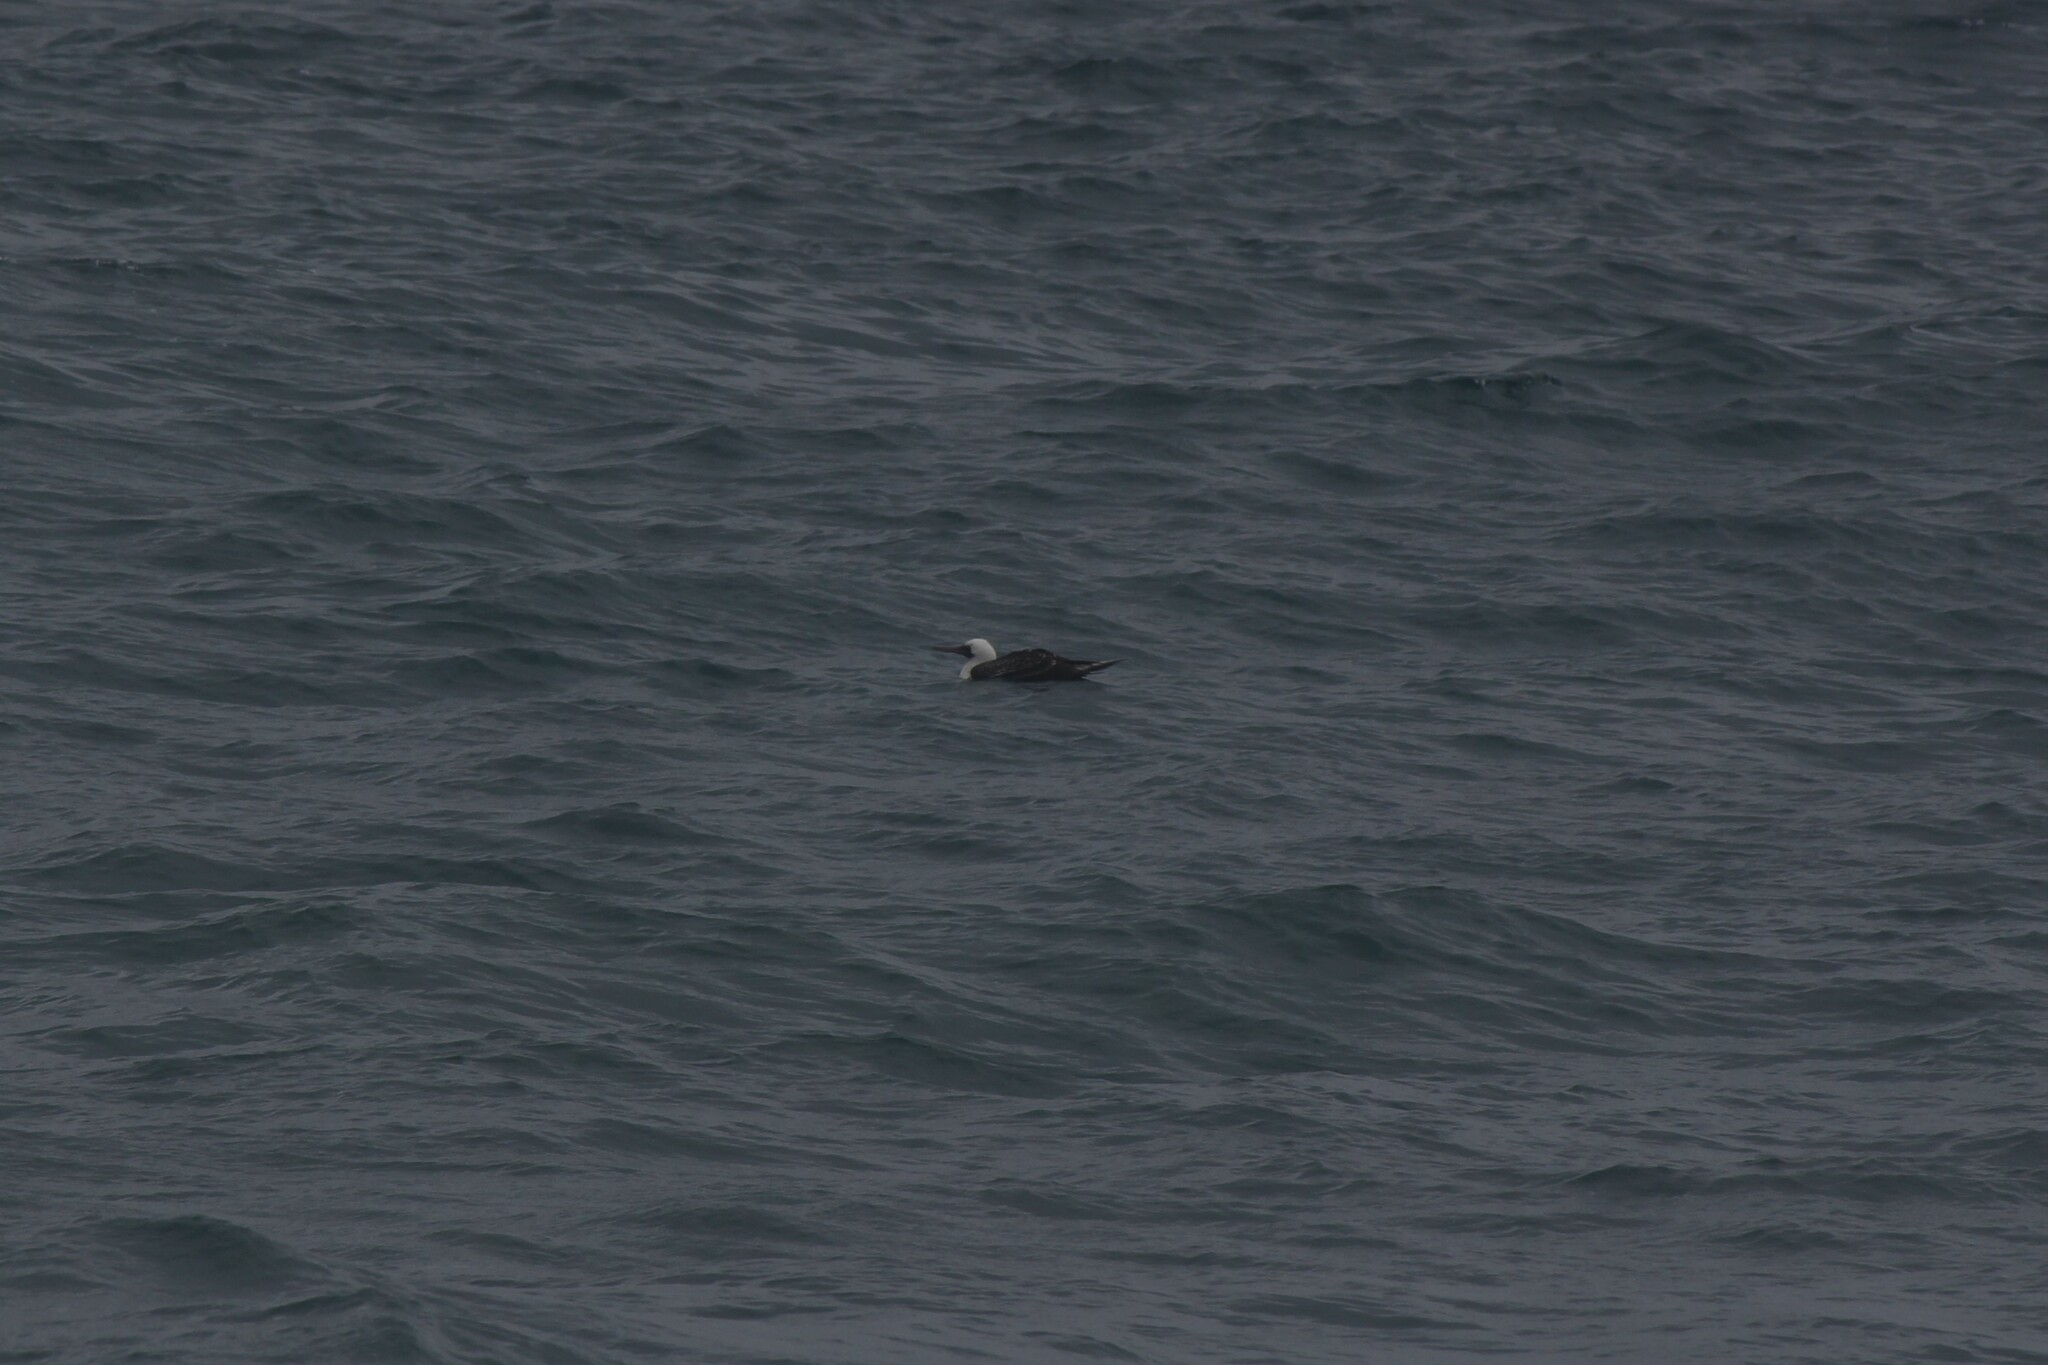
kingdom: Animalia
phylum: Chordata
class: Aves
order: Suliformes
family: Sulidae
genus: Sula
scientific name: Sula variegata
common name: Peruvian booby
